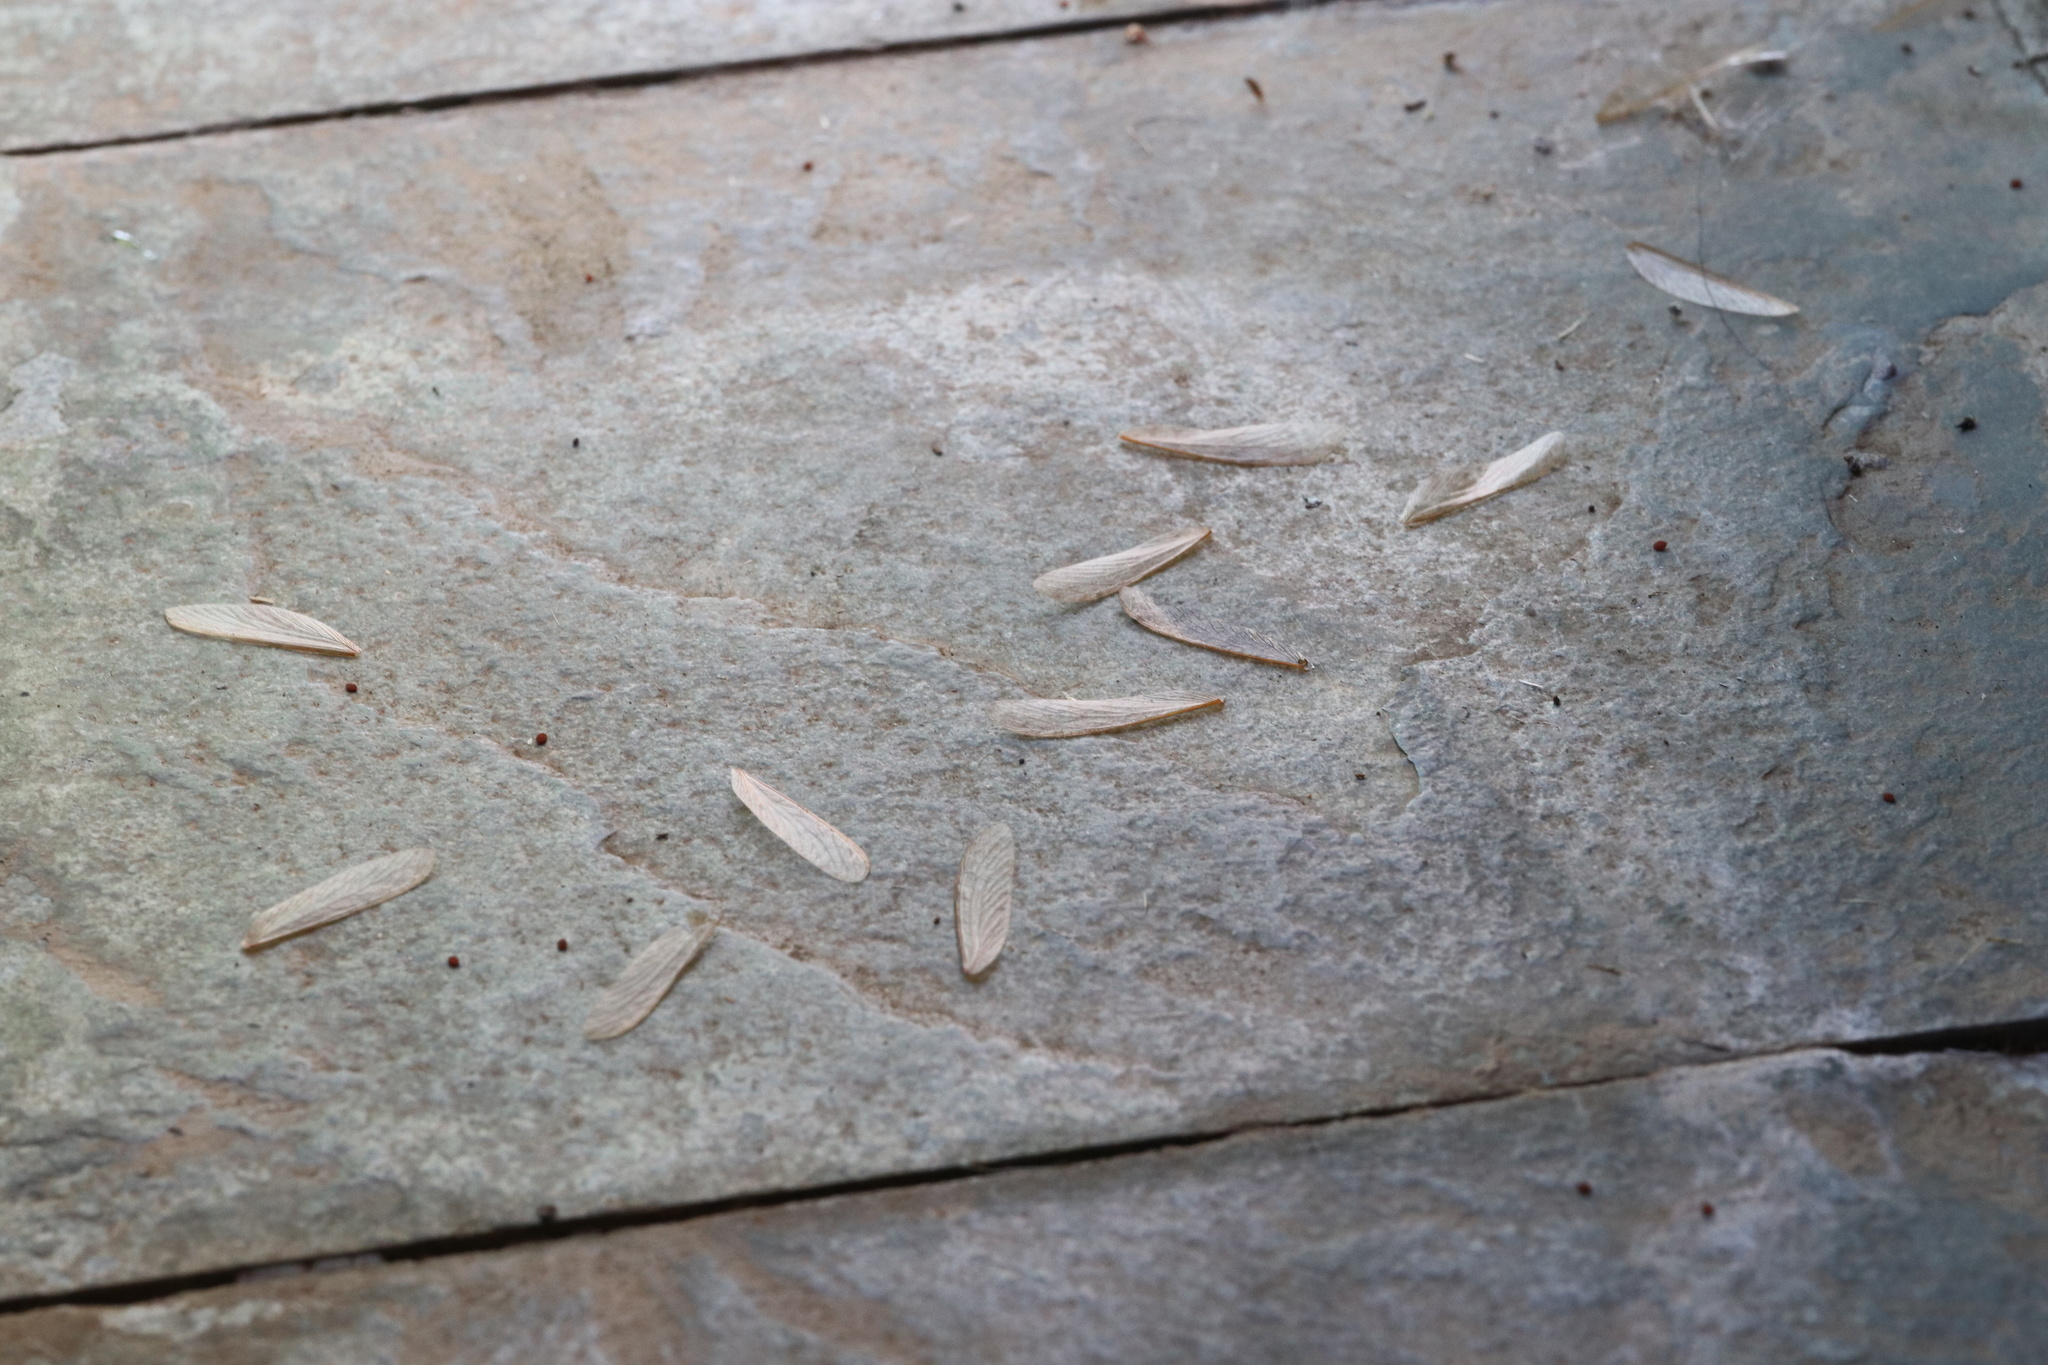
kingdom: Animalia
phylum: Arthropoda
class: Insecta
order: Blattodea
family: Stolotermitidae
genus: Porotermes
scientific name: Porotermes quadricollis
